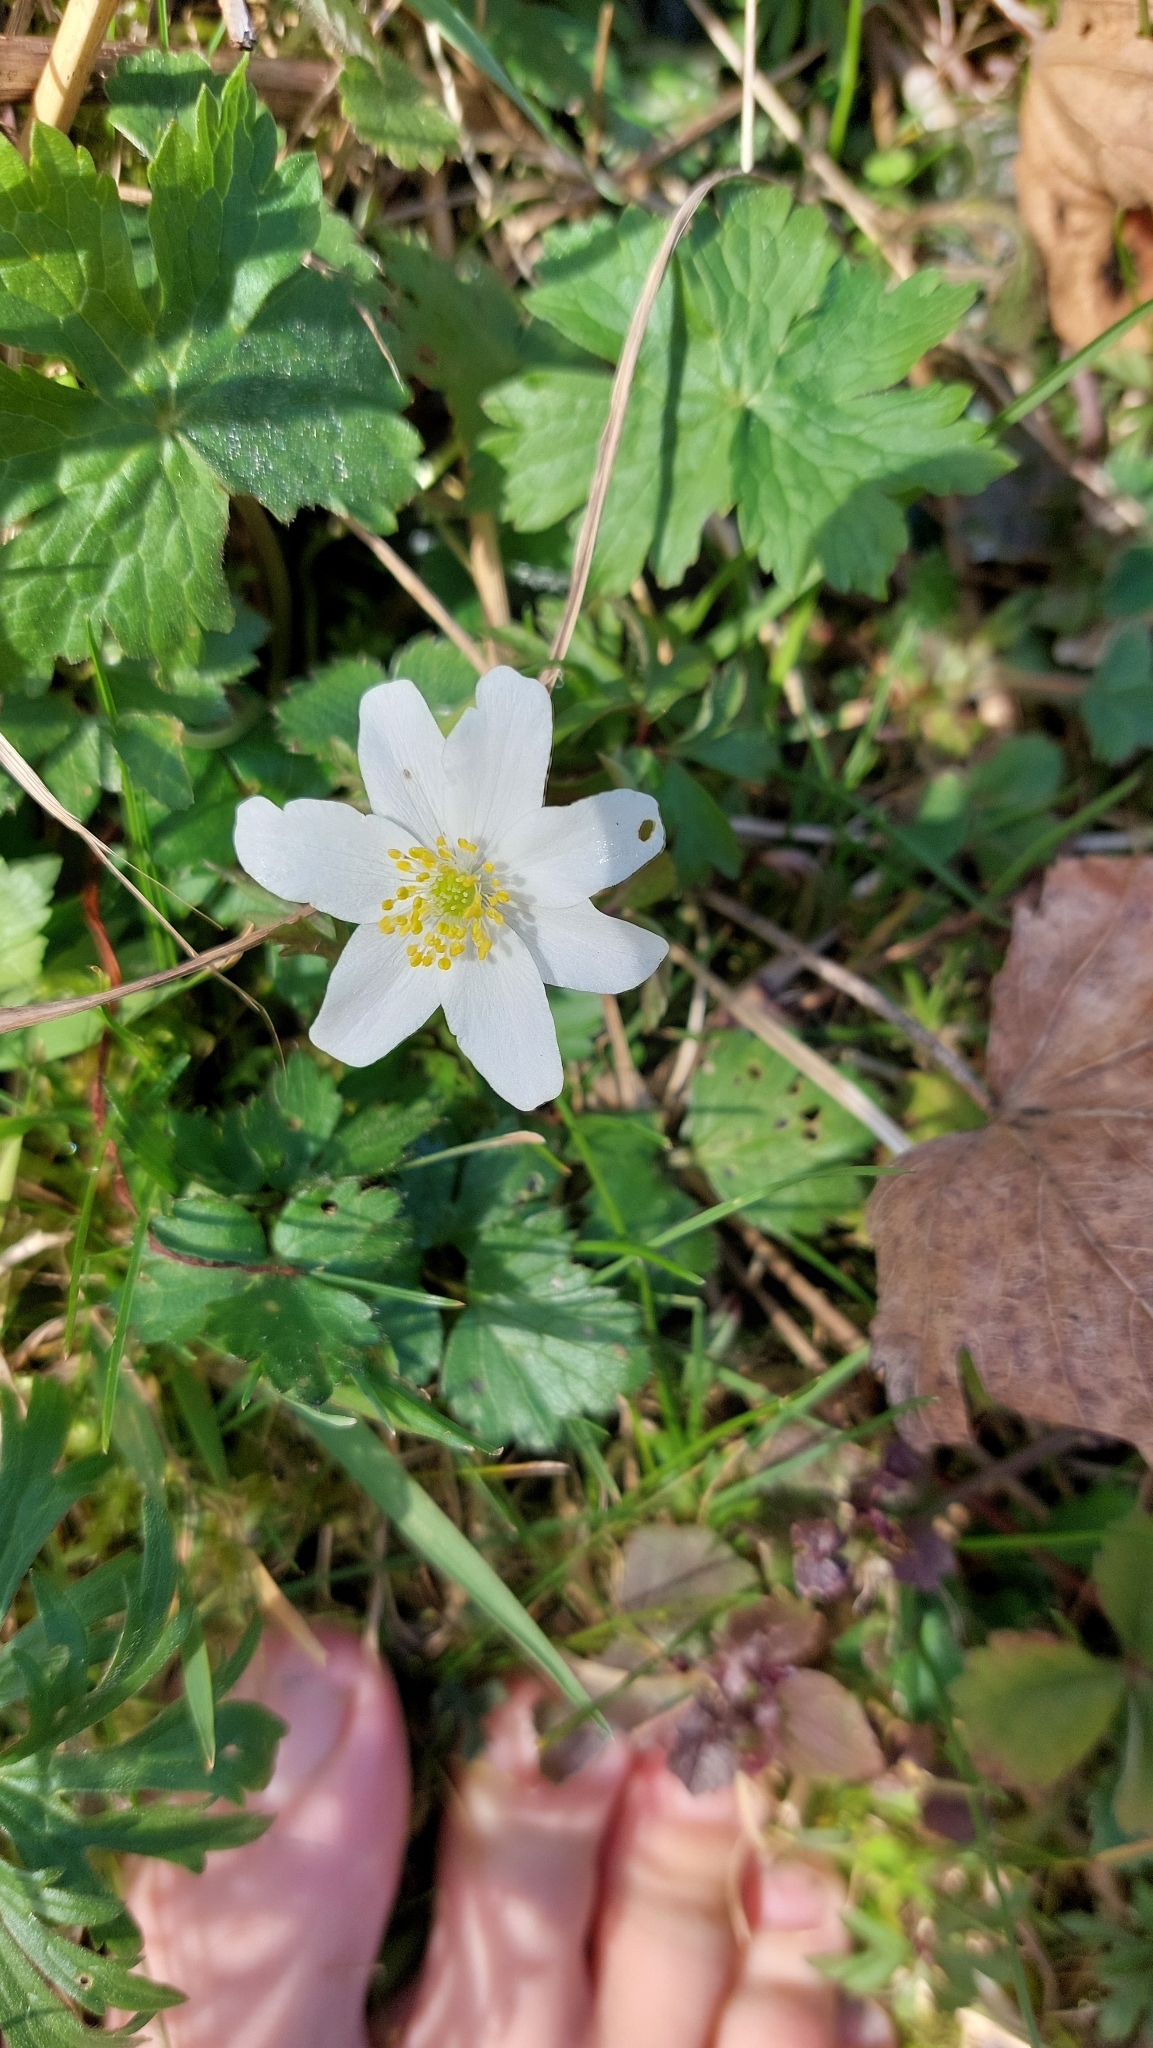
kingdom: Plantae
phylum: Tracheophyta
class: Magnoliopsida
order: Ranunculales
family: Ranunculaceae
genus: Anemone
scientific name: Anemone nemorosa
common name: Wood anemone
